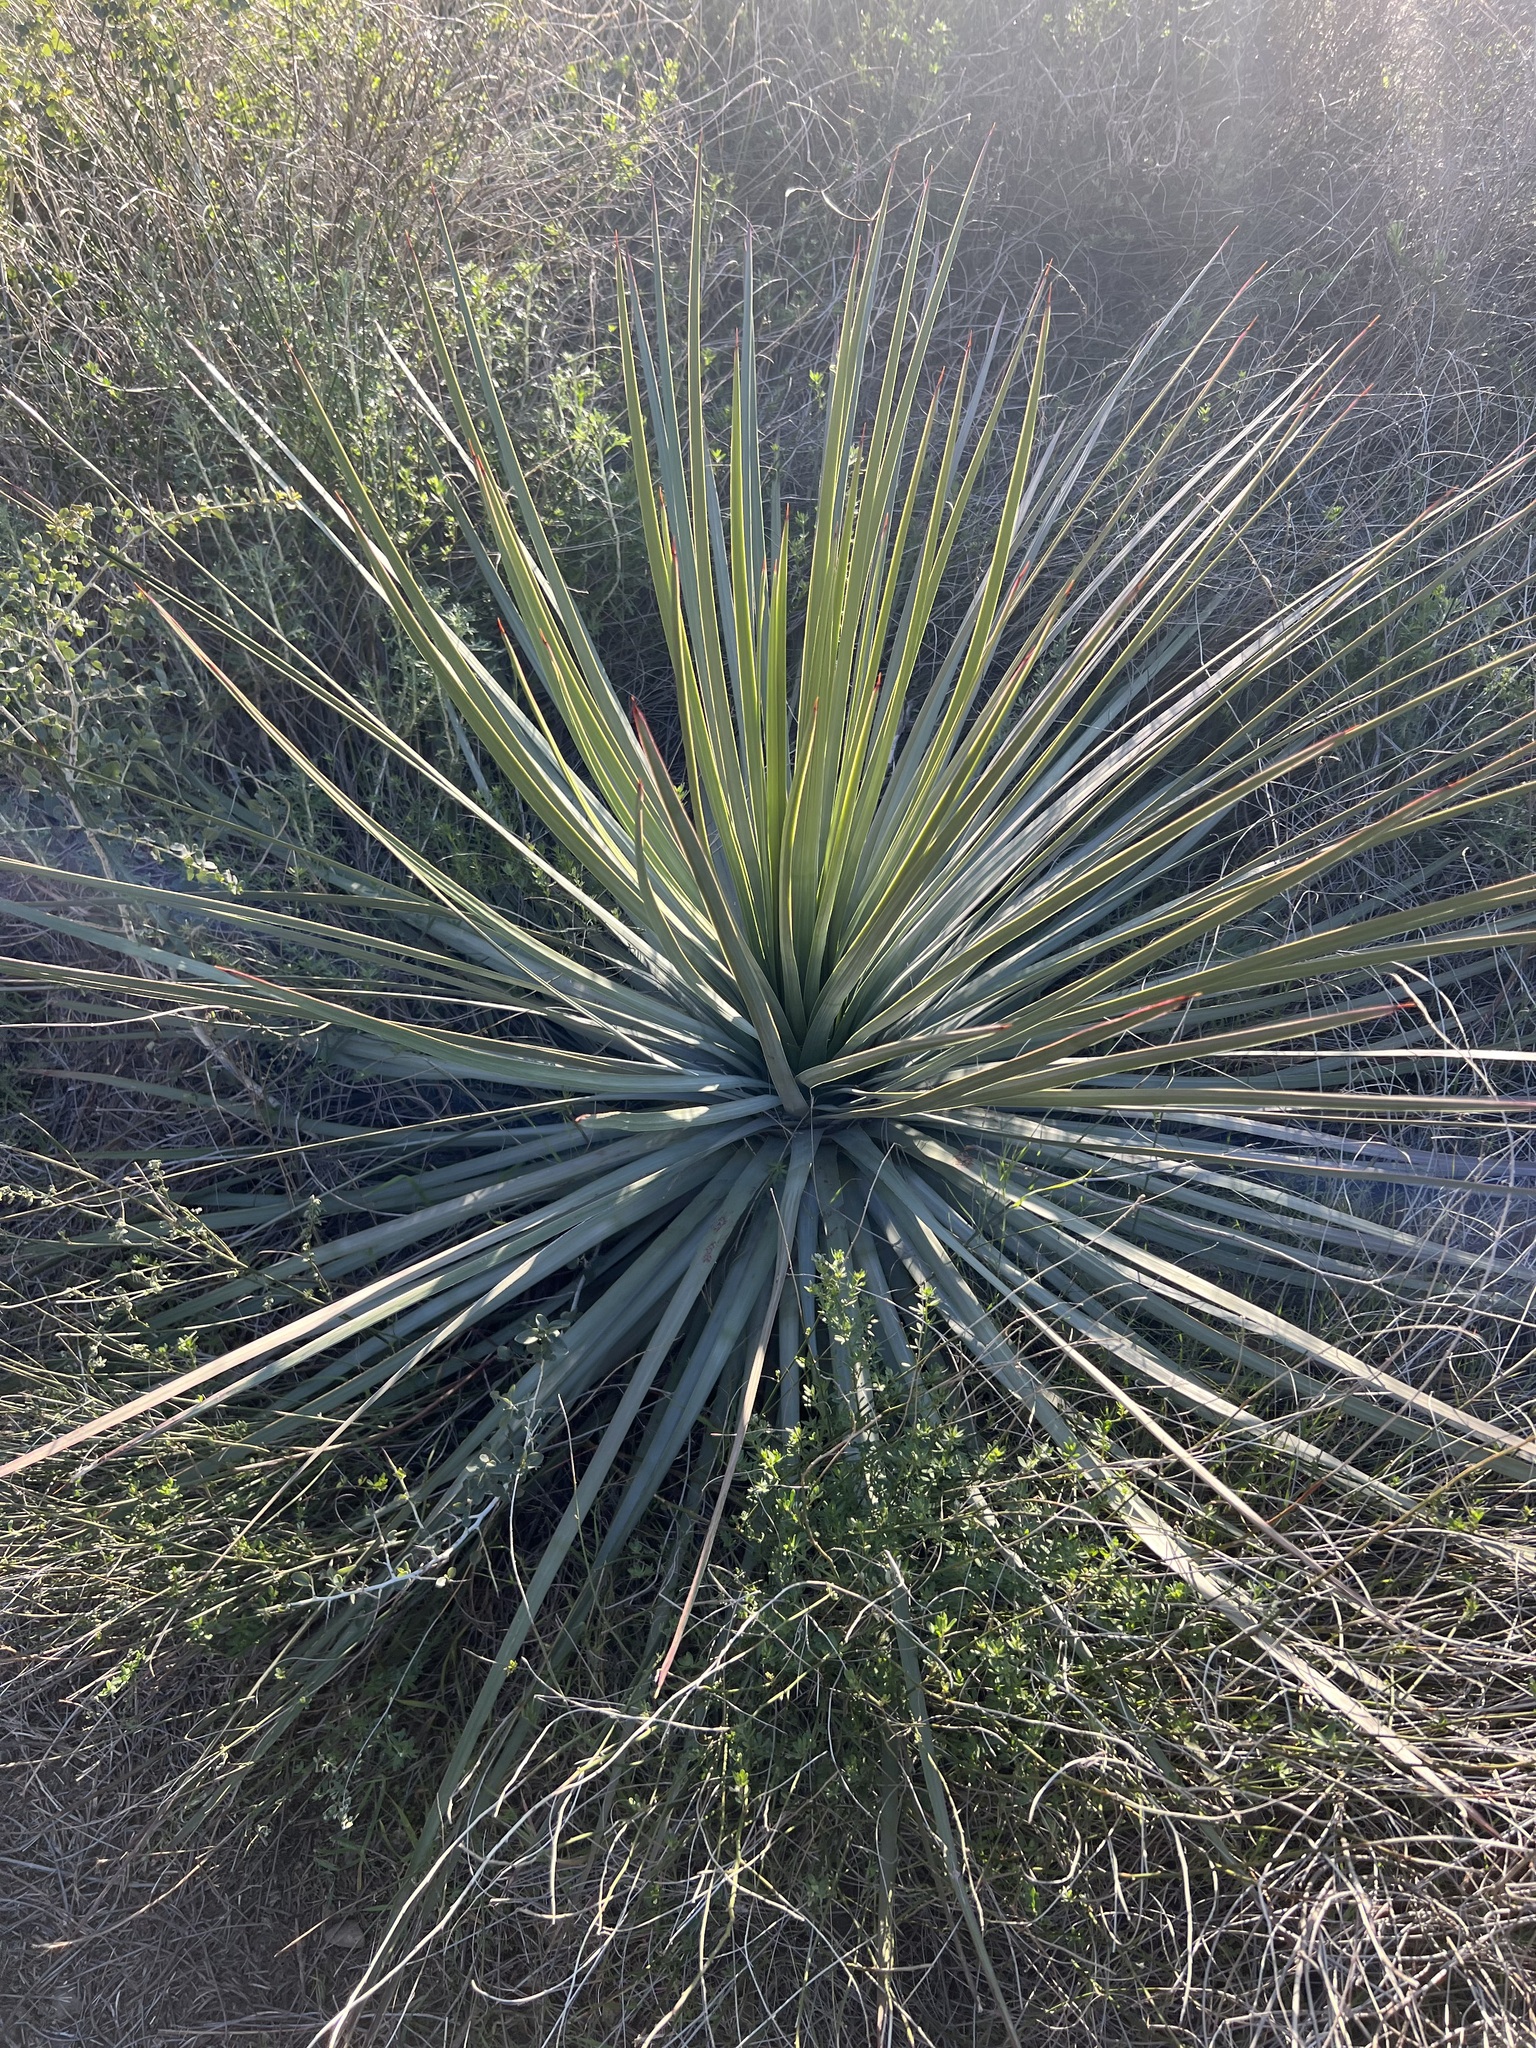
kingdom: Plantae
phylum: Tracheophyta
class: Liliopsida
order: Asparagales
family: Asparagaceae
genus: Hesperoyucca
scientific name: Hesperoyucca whipplei
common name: Our lord's-candle
